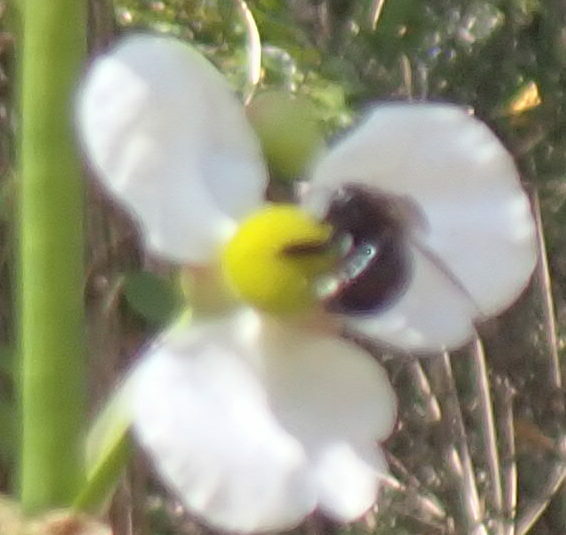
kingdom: Animalia
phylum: Arthropoda
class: Insecta
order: Hymenoptera
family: Apidae
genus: Xylocopa
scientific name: Xylocopa micans
